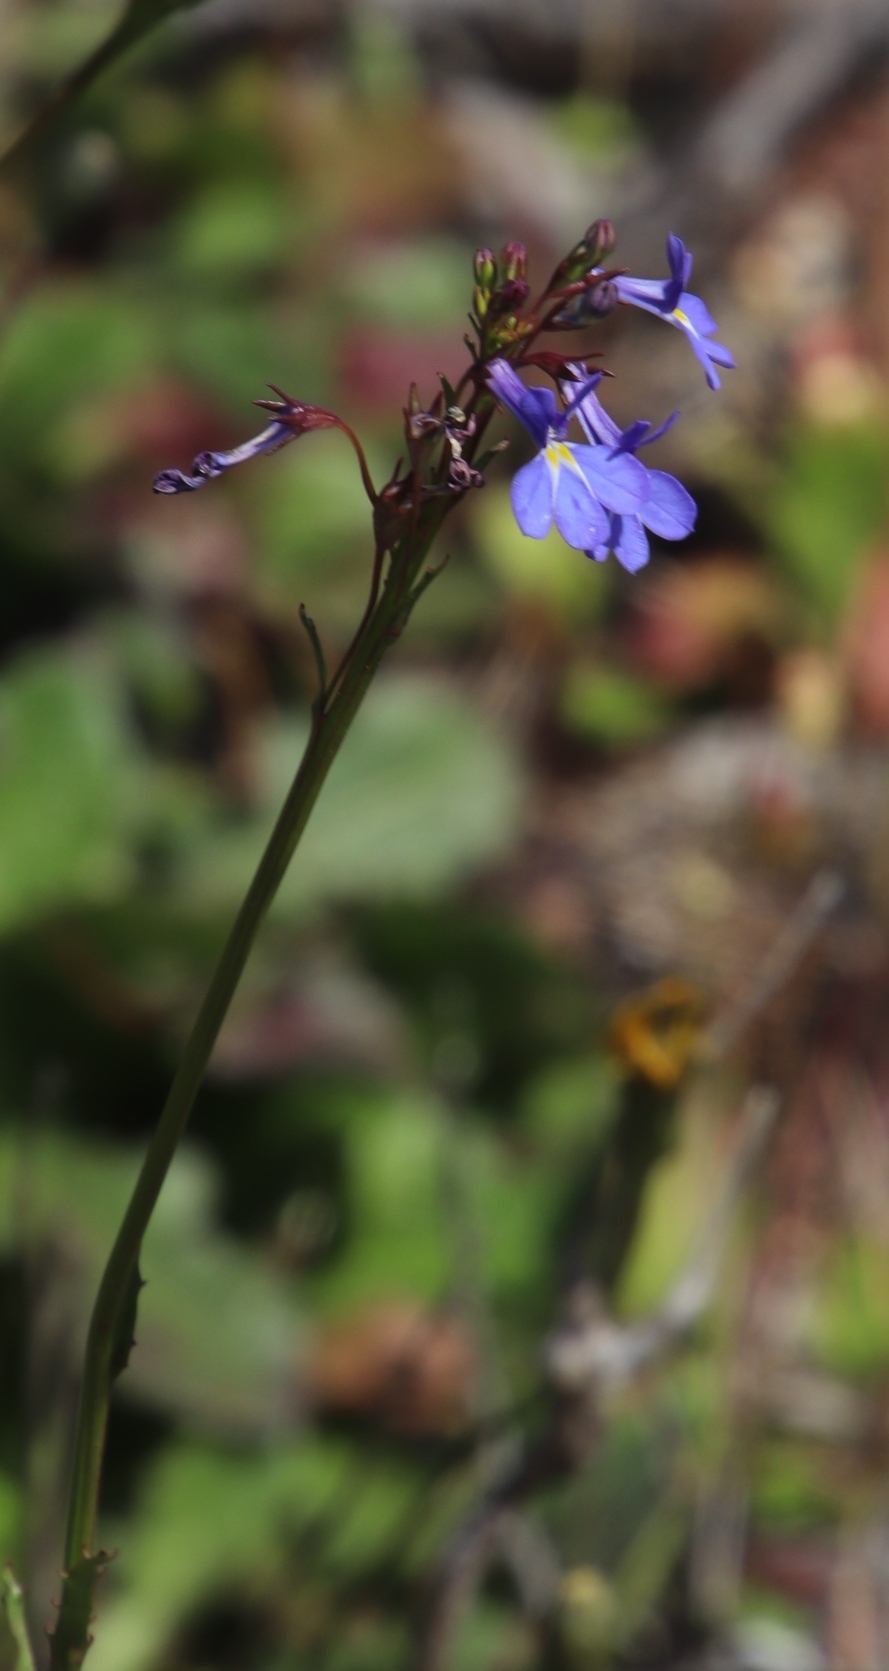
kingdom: Plantae
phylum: Tracheophyta
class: Magnoliopsida
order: Asterales
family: Campanulaceae
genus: Lobelia
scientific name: Lobelia comosa
